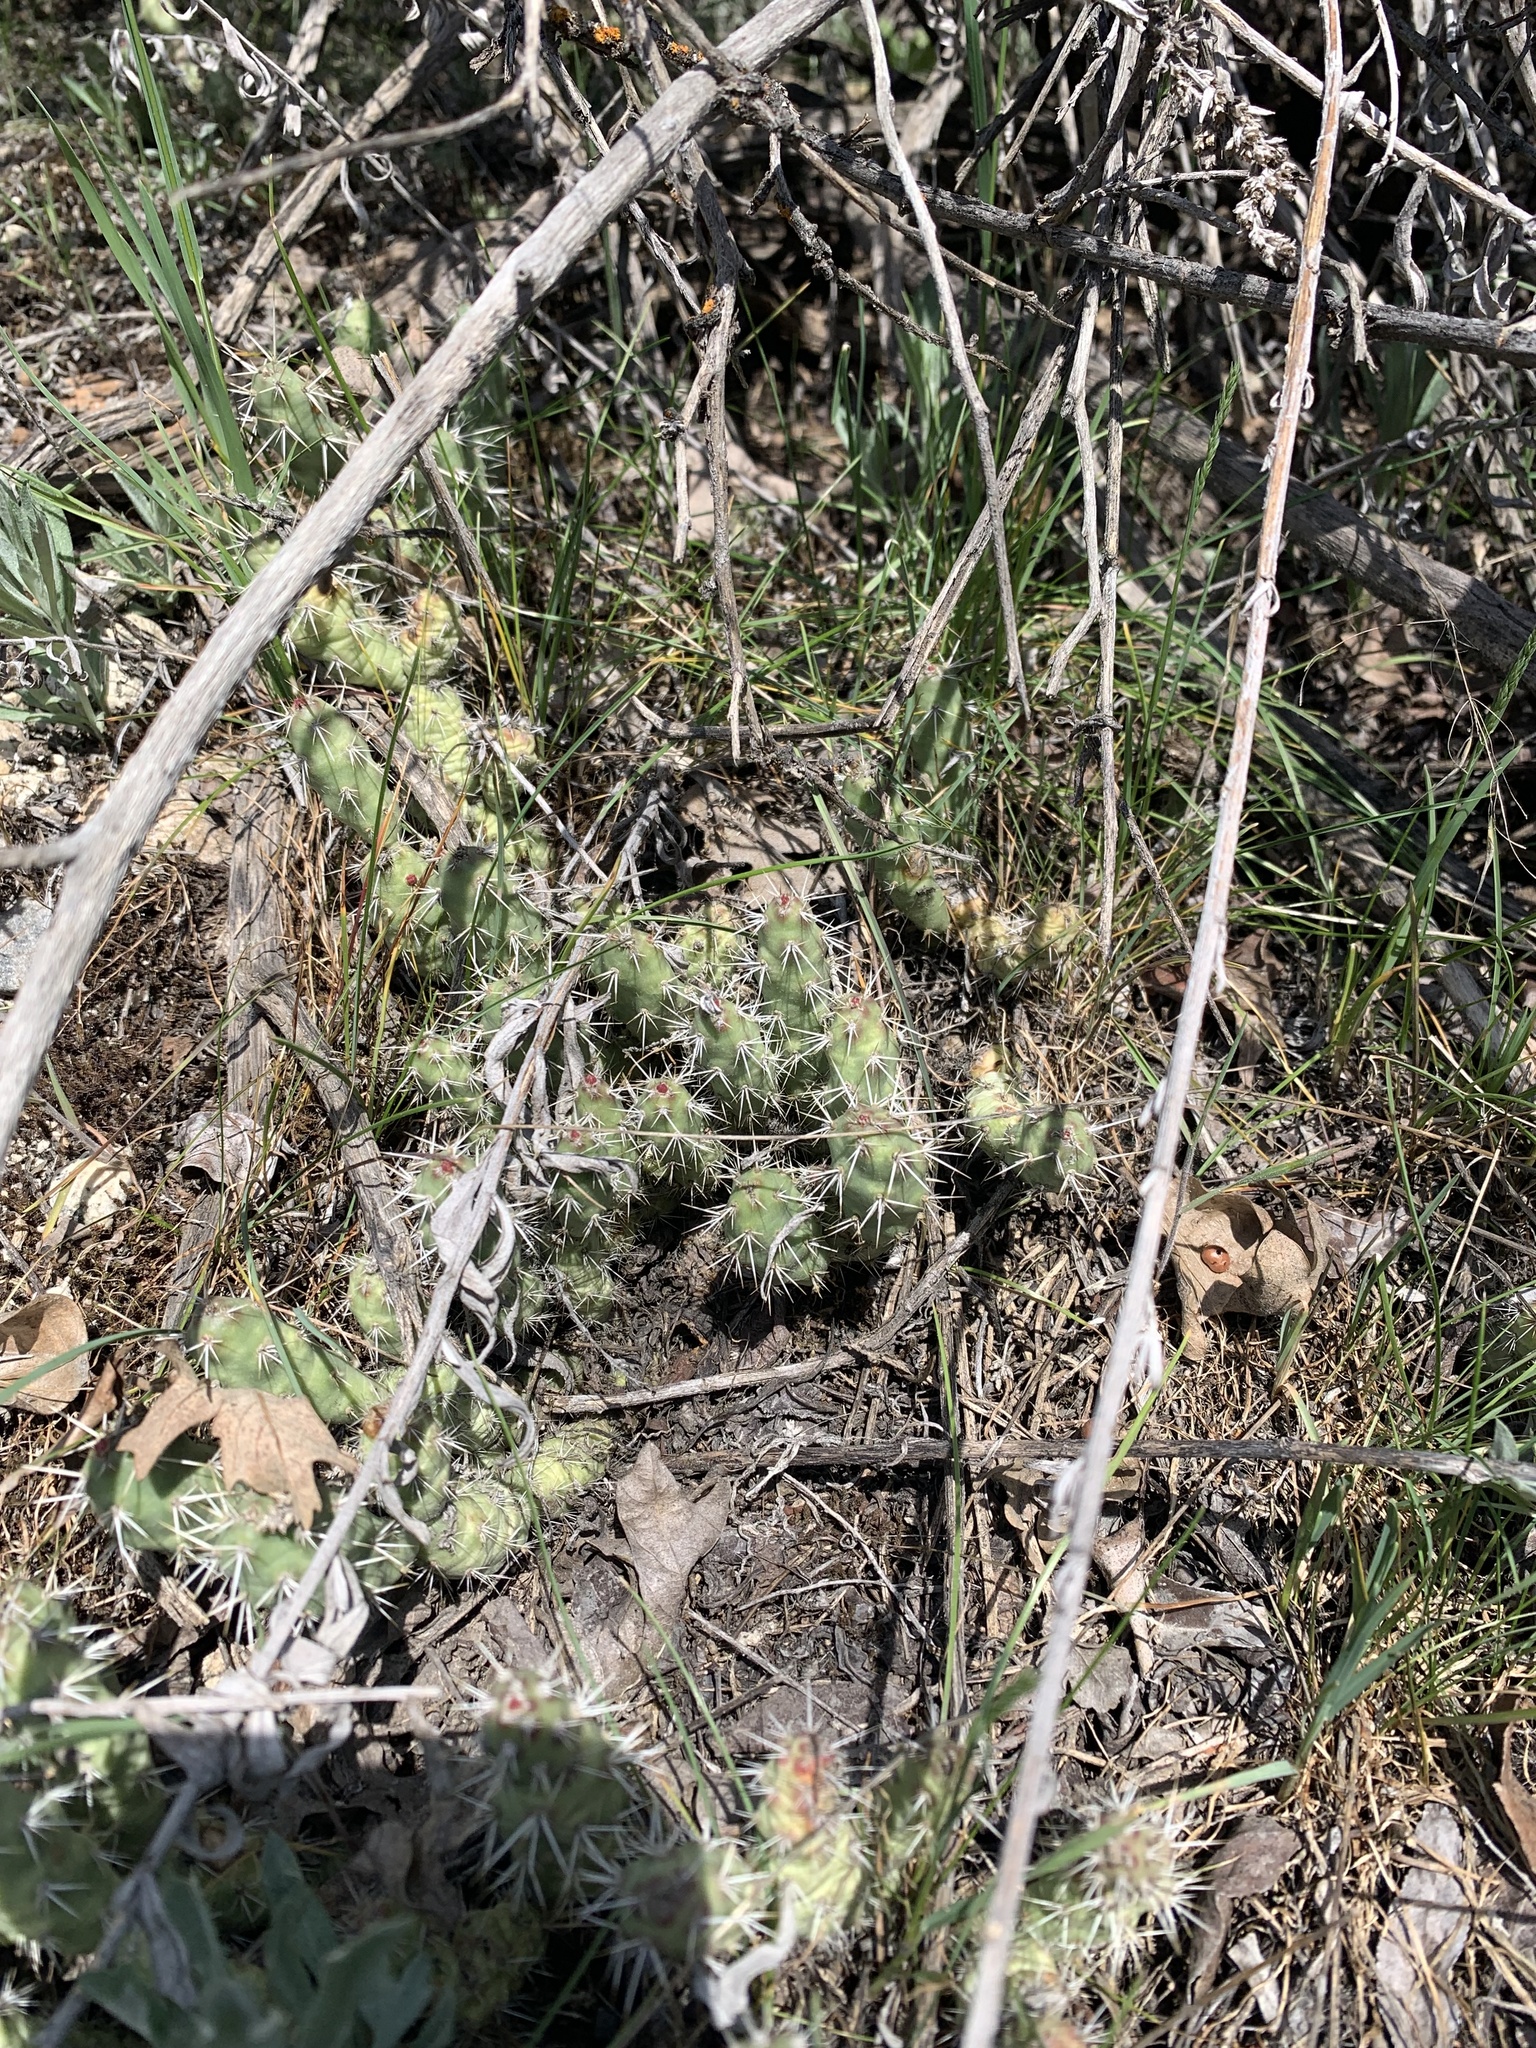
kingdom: Plantae
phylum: Tracheophyta
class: Magnoliopsida
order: Caryophyllales
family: Cactaceae
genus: Opuntia
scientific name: Opuntia fragilis
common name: Brittle cactus
